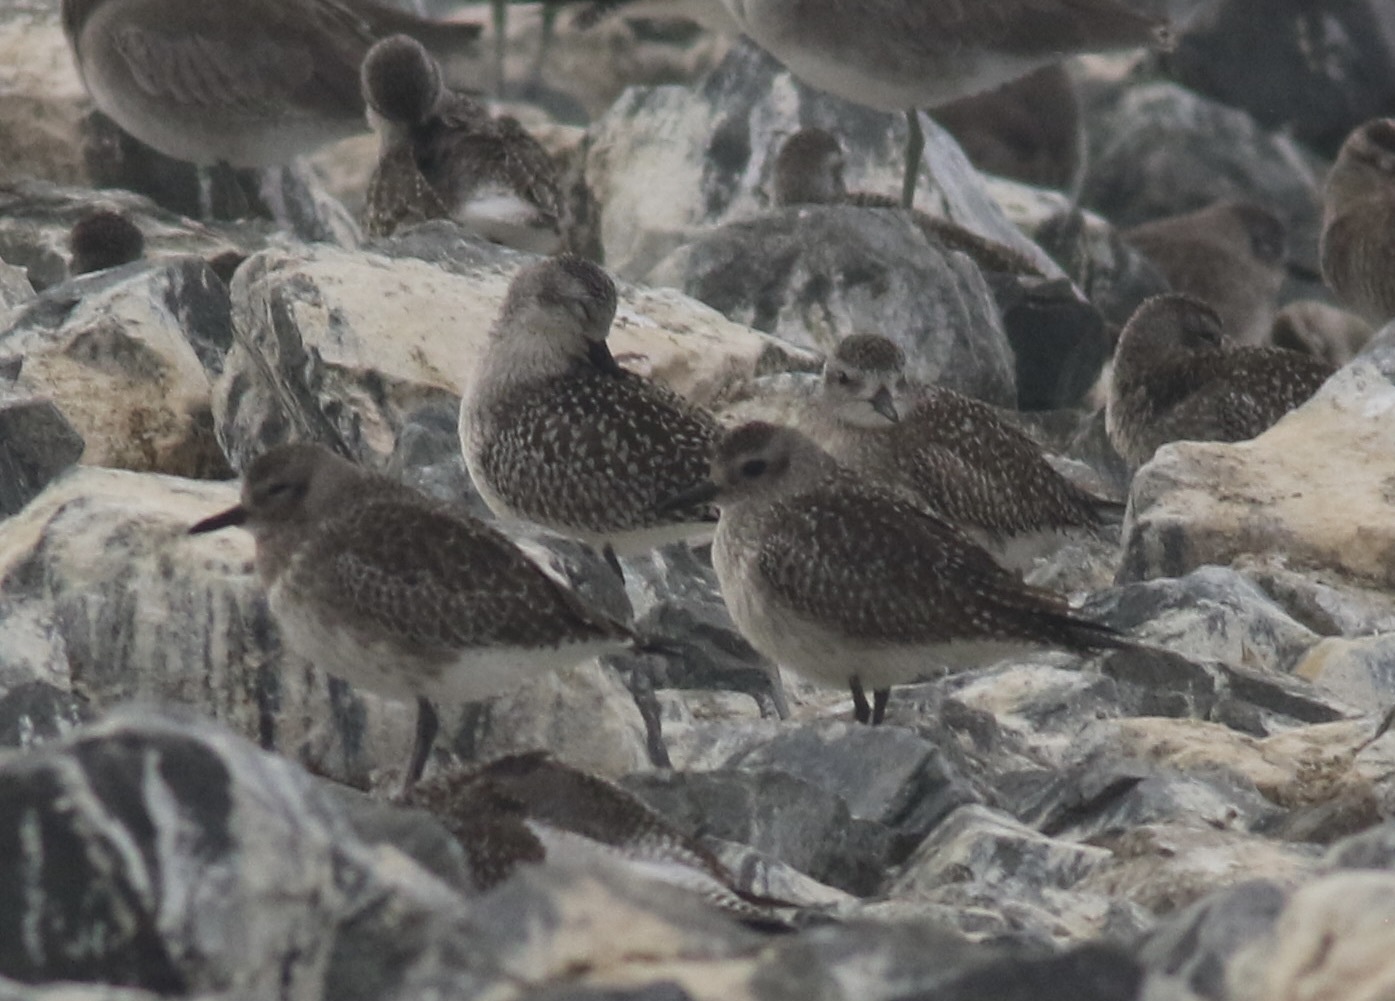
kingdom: Animalia
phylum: Chordata
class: Aves
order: Charadriiformes
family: Charadriidae
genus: Pluvialis
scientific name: Pluvialis squatarola
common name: Grey plover
